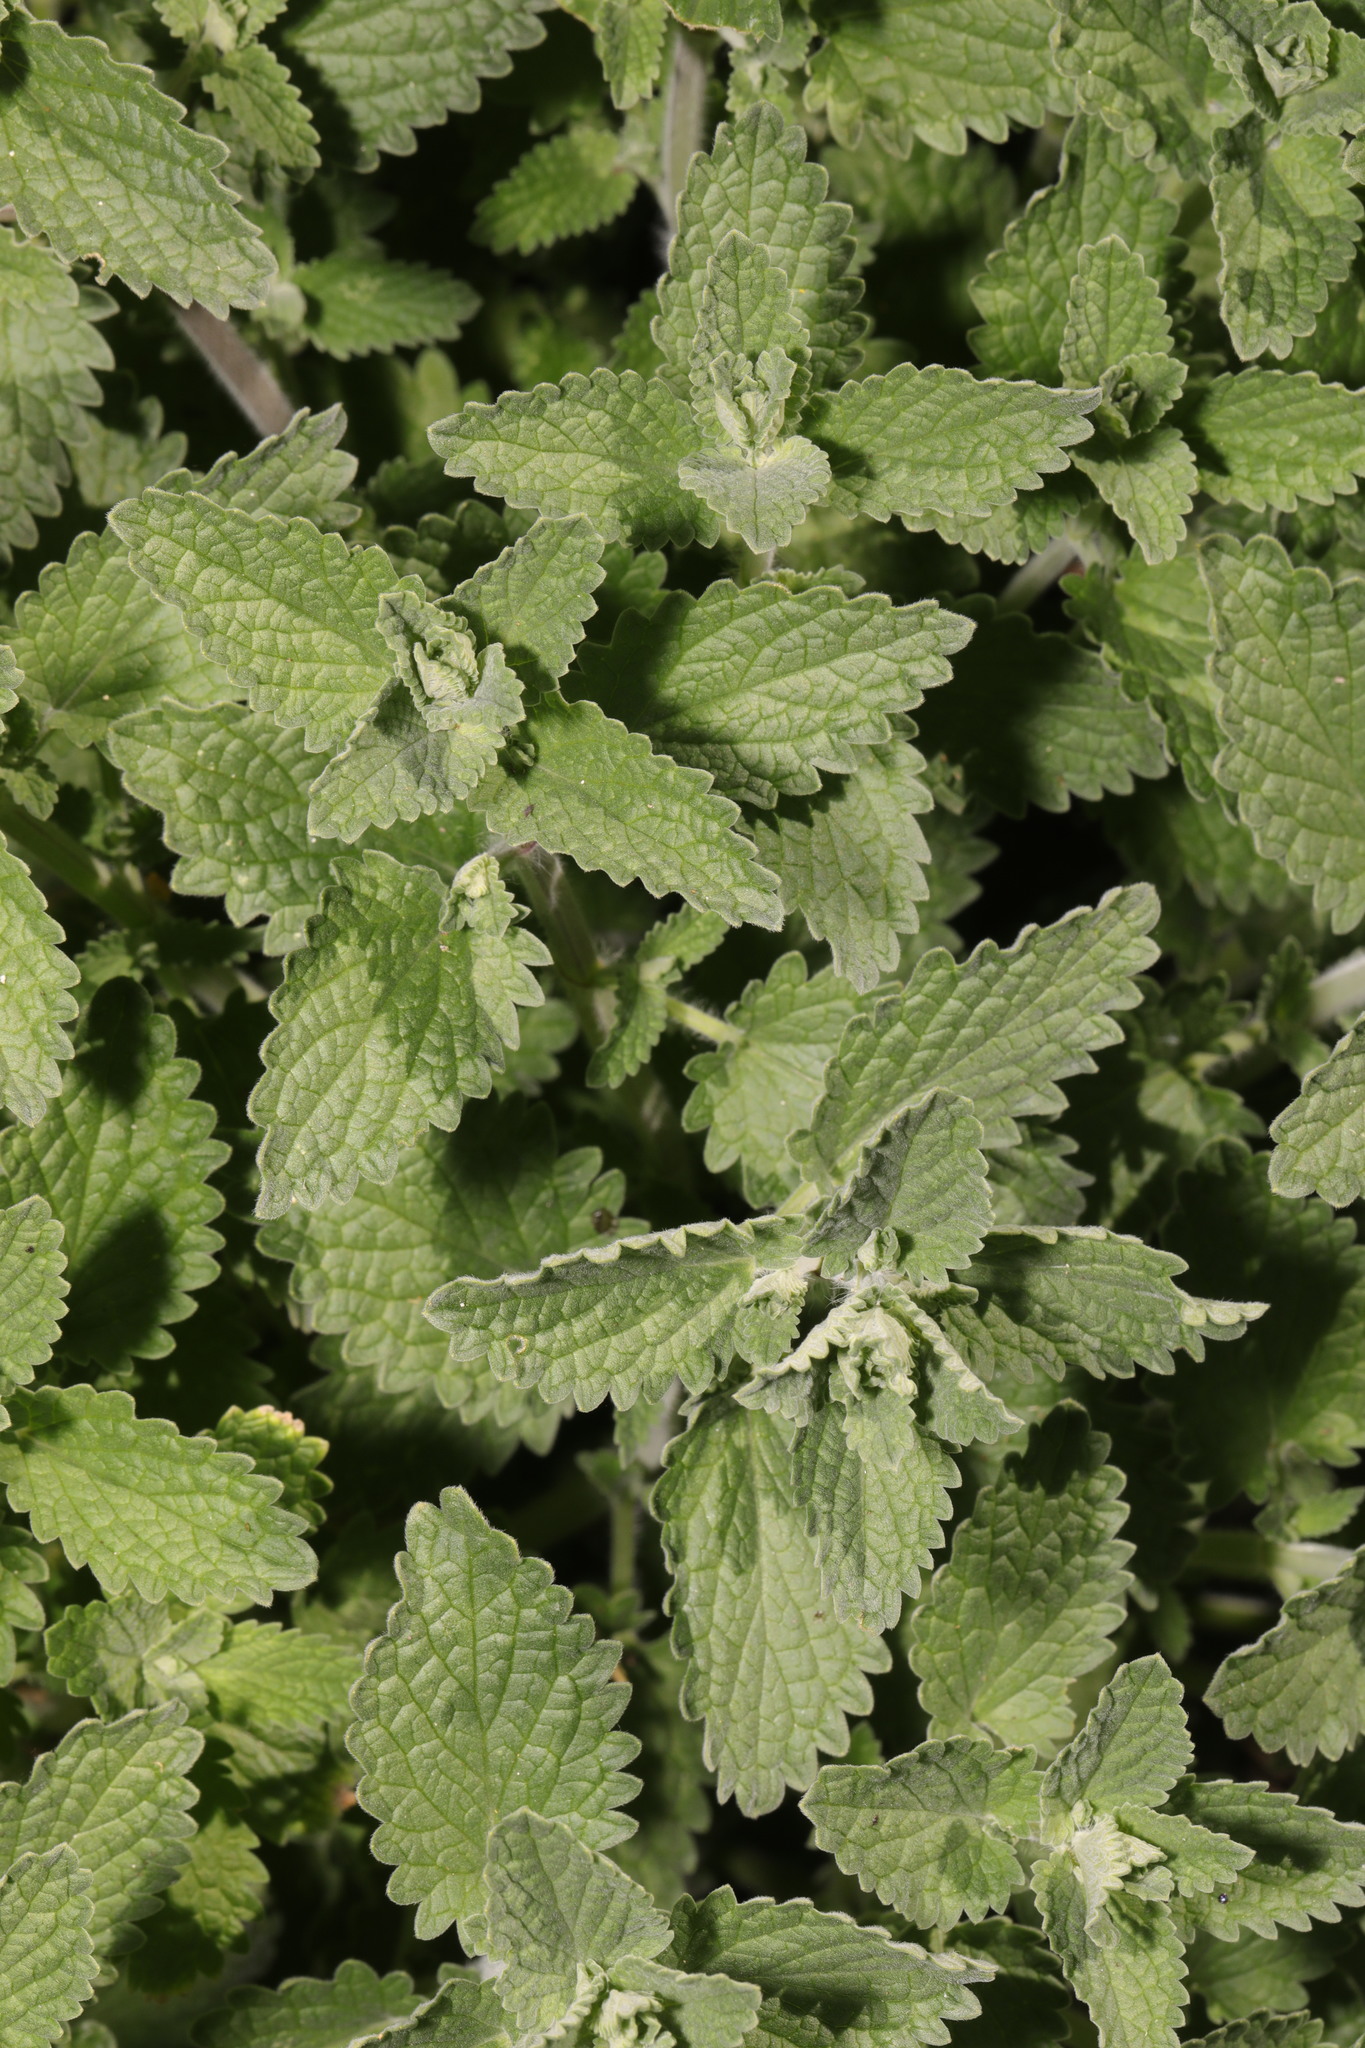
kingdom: Plantae
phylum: Tracheophyta
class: Magnoliopsida
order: Lamiales
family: Lamiaceae
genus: Nepeta
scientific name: Nepeta faassenii
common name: Catmint
